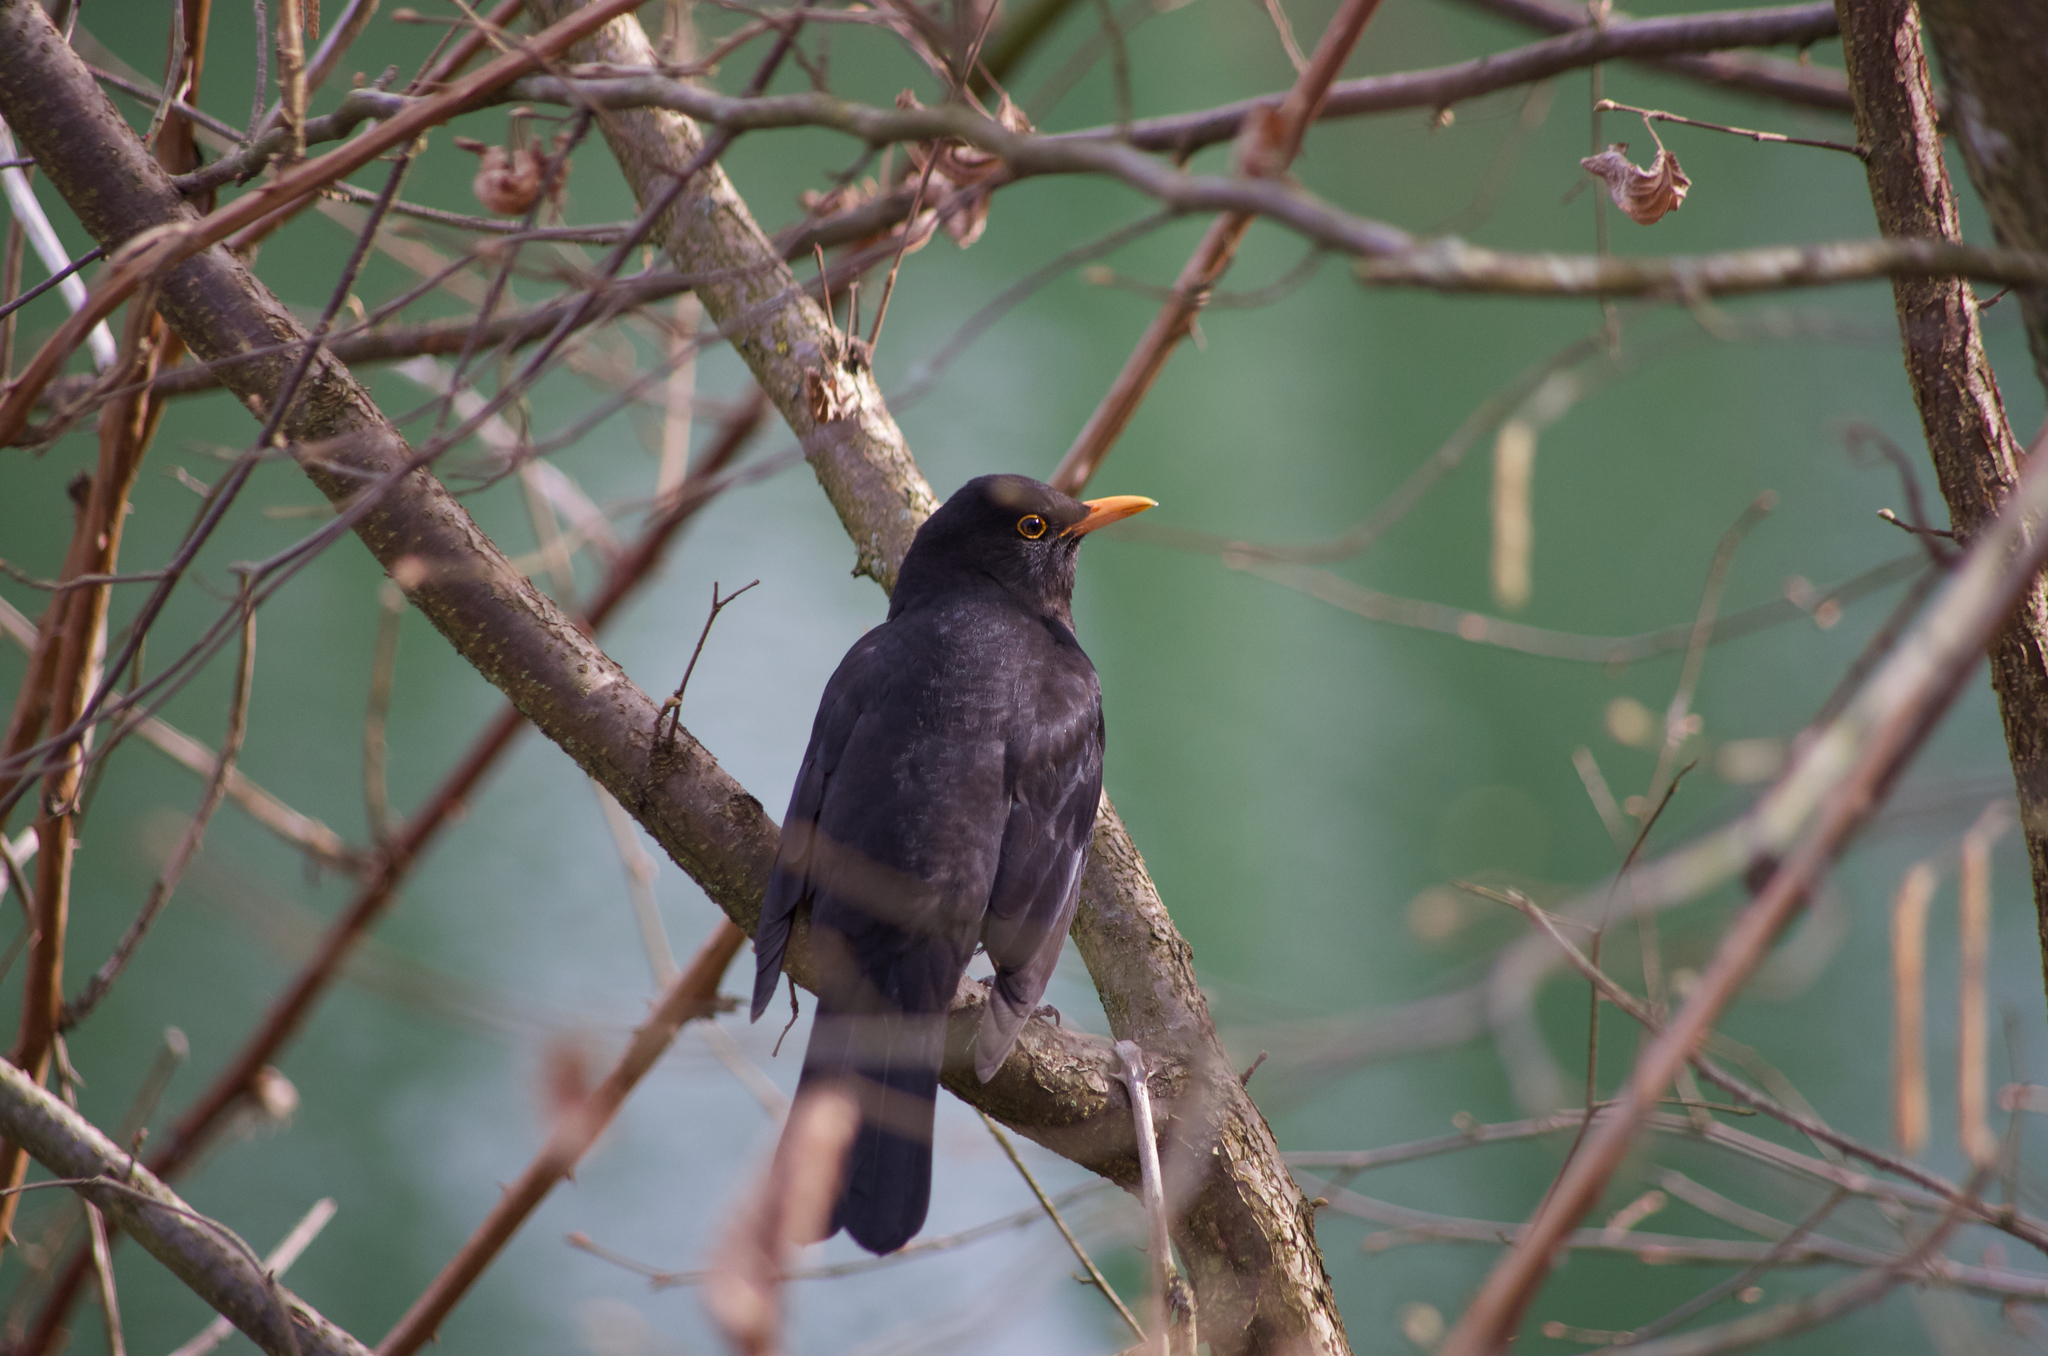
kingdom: Animalia
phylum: Chordata
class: Aves
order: Passeriformes
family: Turdidae
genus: Turdus
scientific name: Turdus merula
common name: Common blackbird
